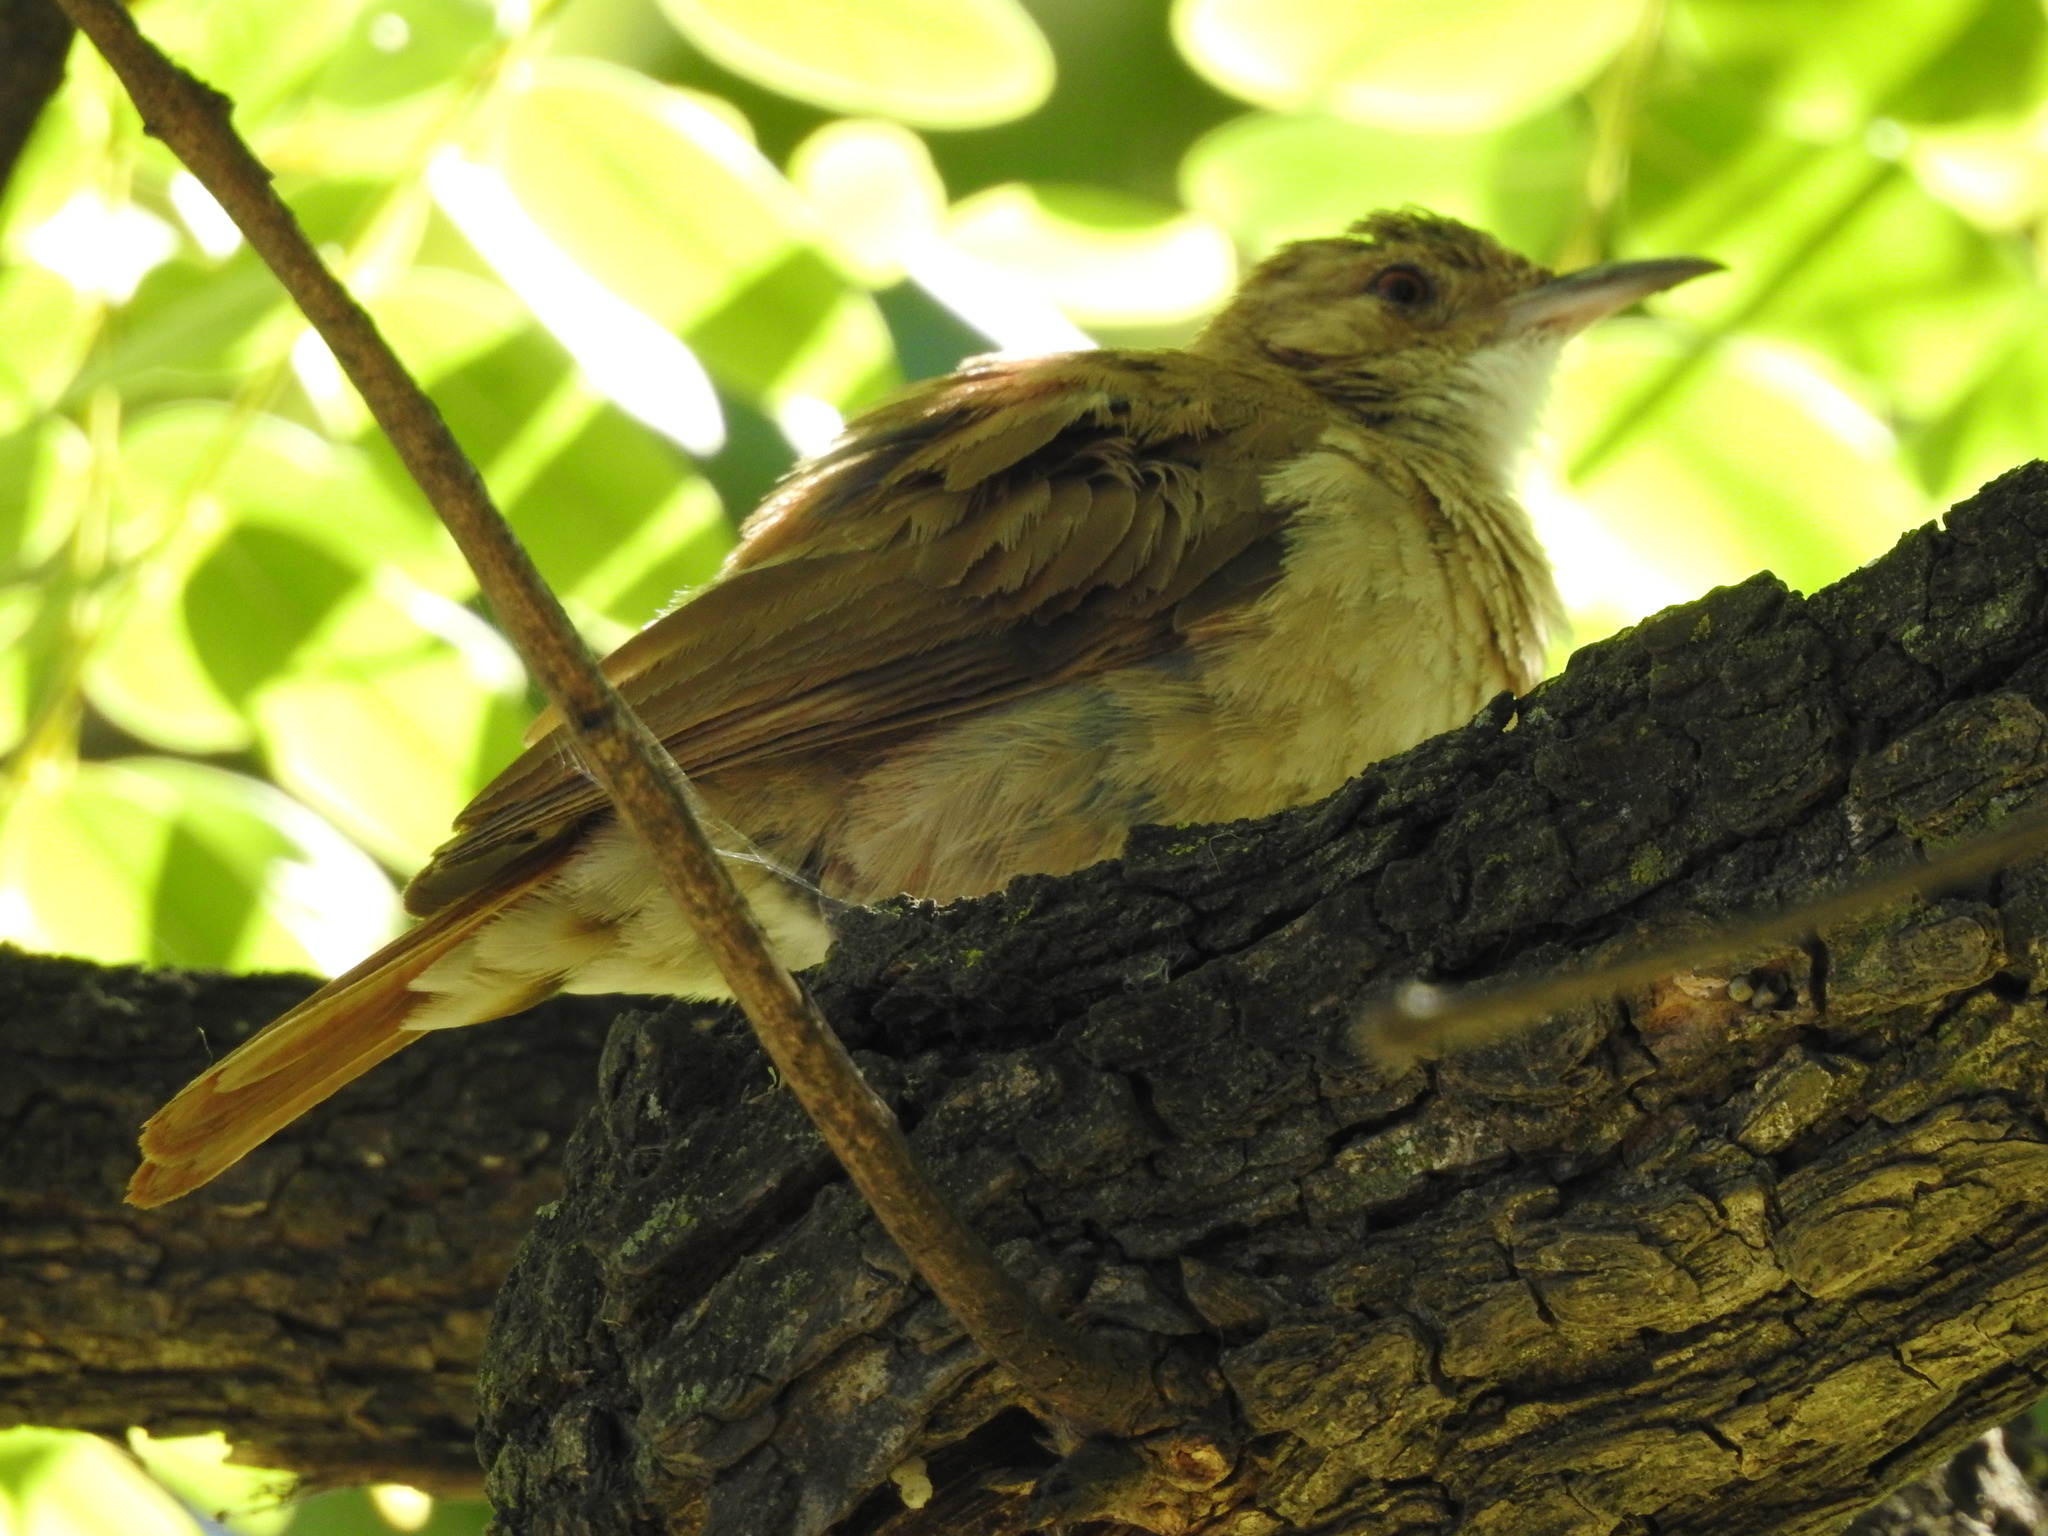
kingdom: Animalia
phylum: Chordata
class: Aves
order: Passeriformes
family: Furnariidae
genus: Furnarius
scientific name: Furnarius rufus
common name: Rufous hornero
